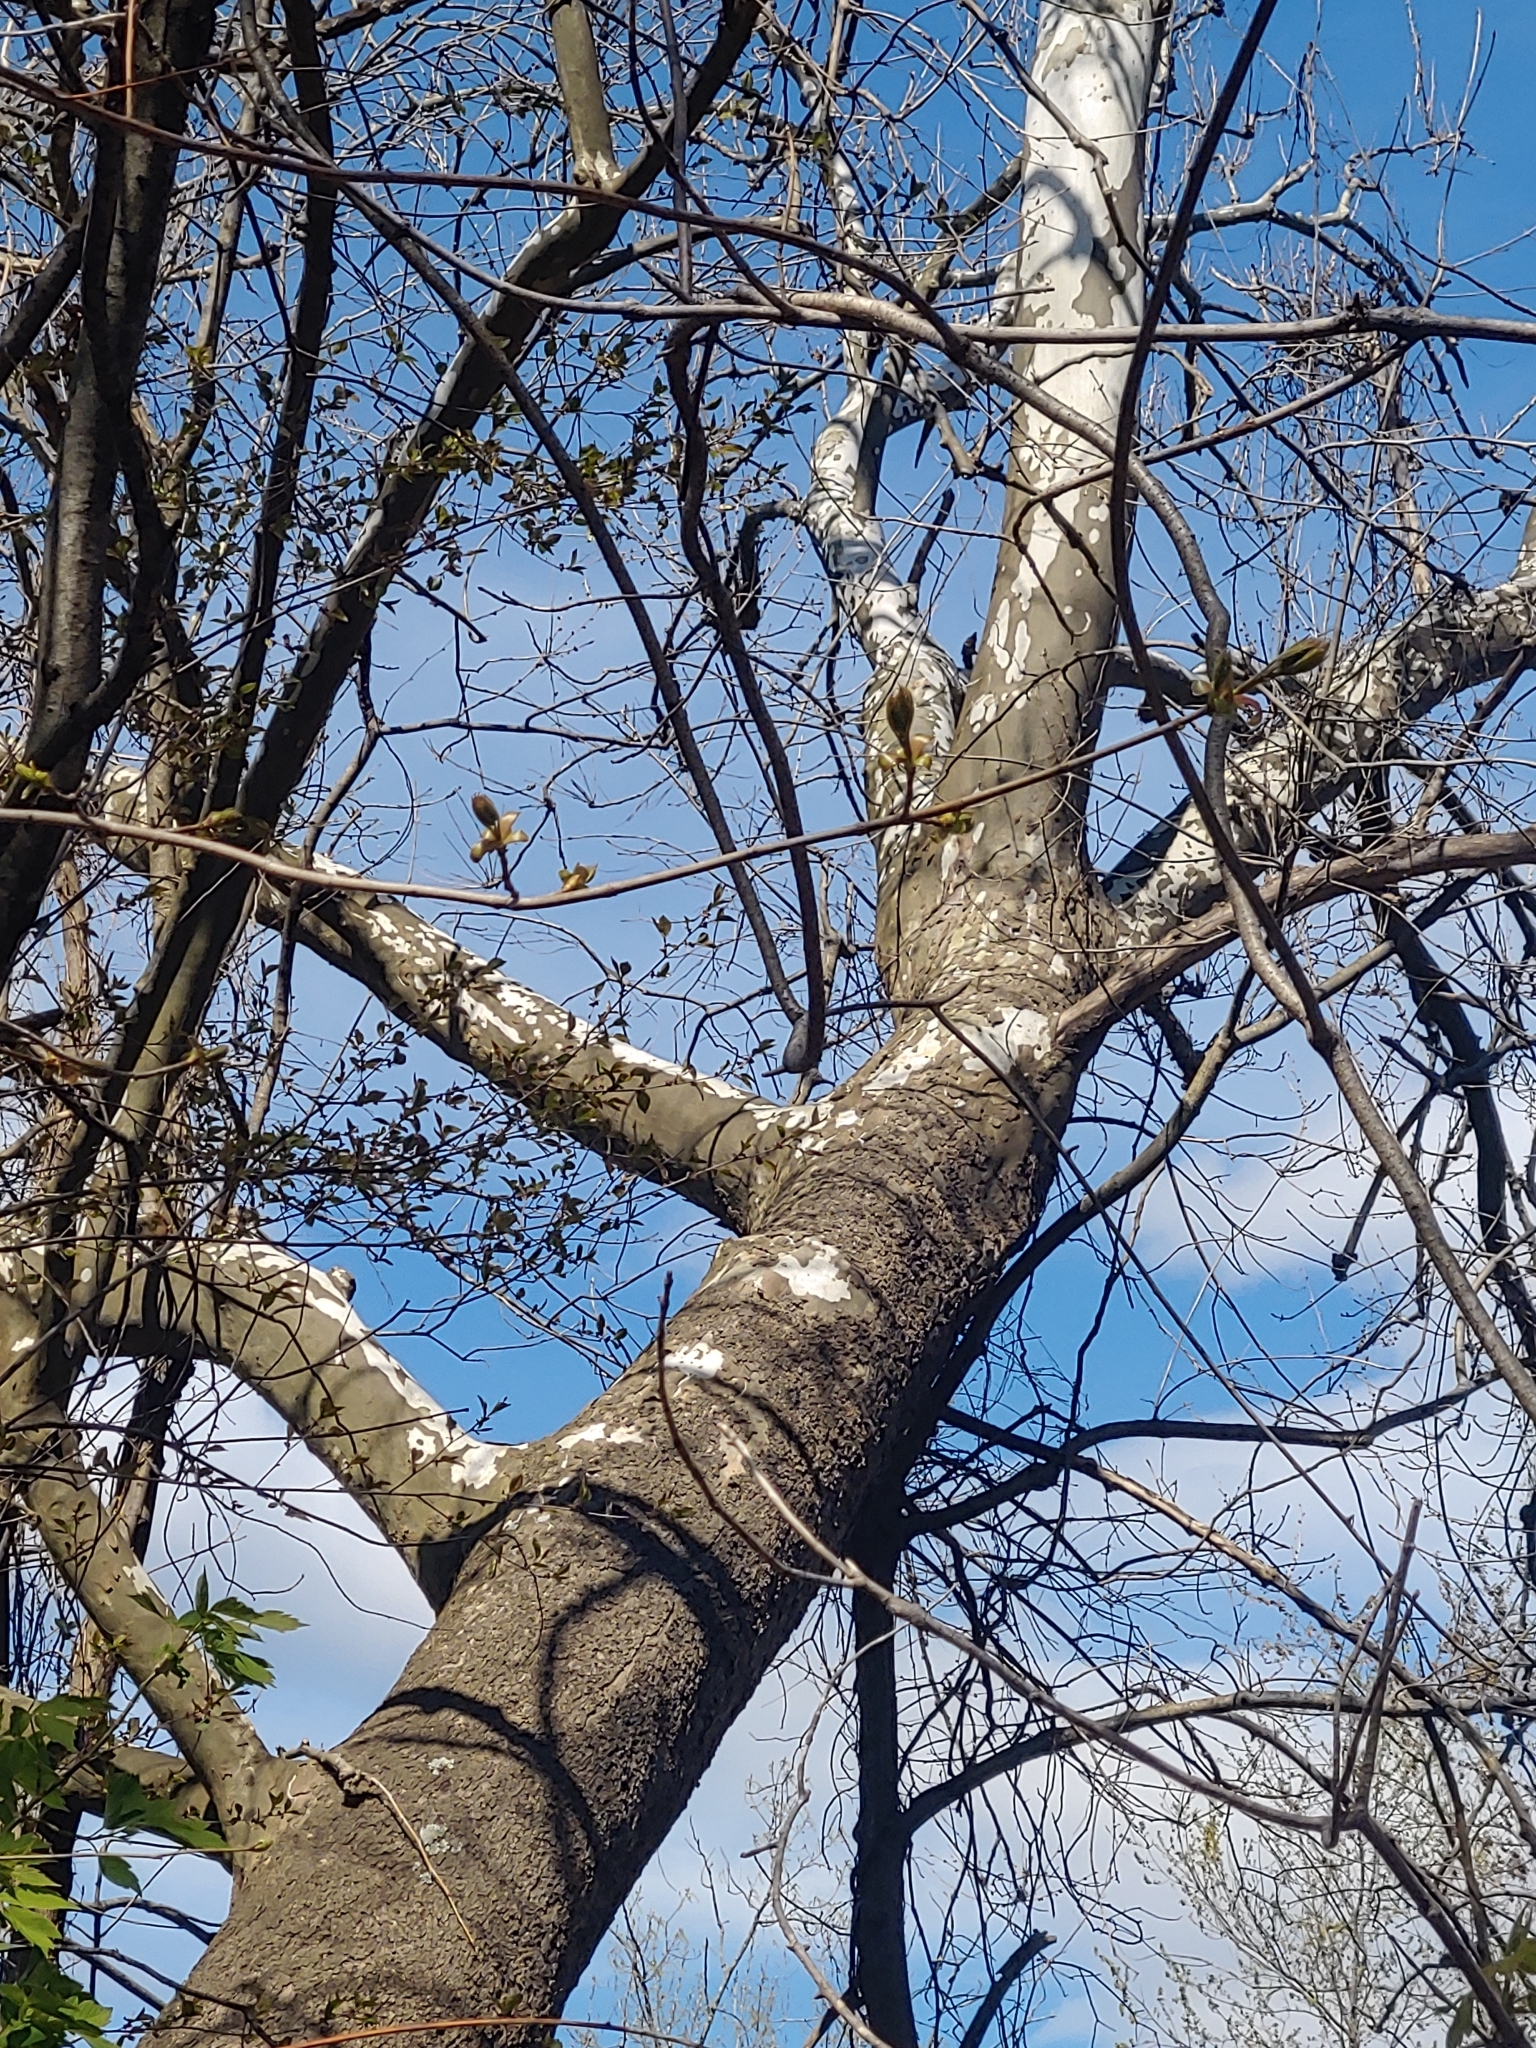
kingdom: Plantae
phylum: Tracheophyta
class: Magnoliopsida
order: Proteales
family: Platanaceae
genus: Platanus
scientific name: Platanus occidentalis
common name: American sycamore
